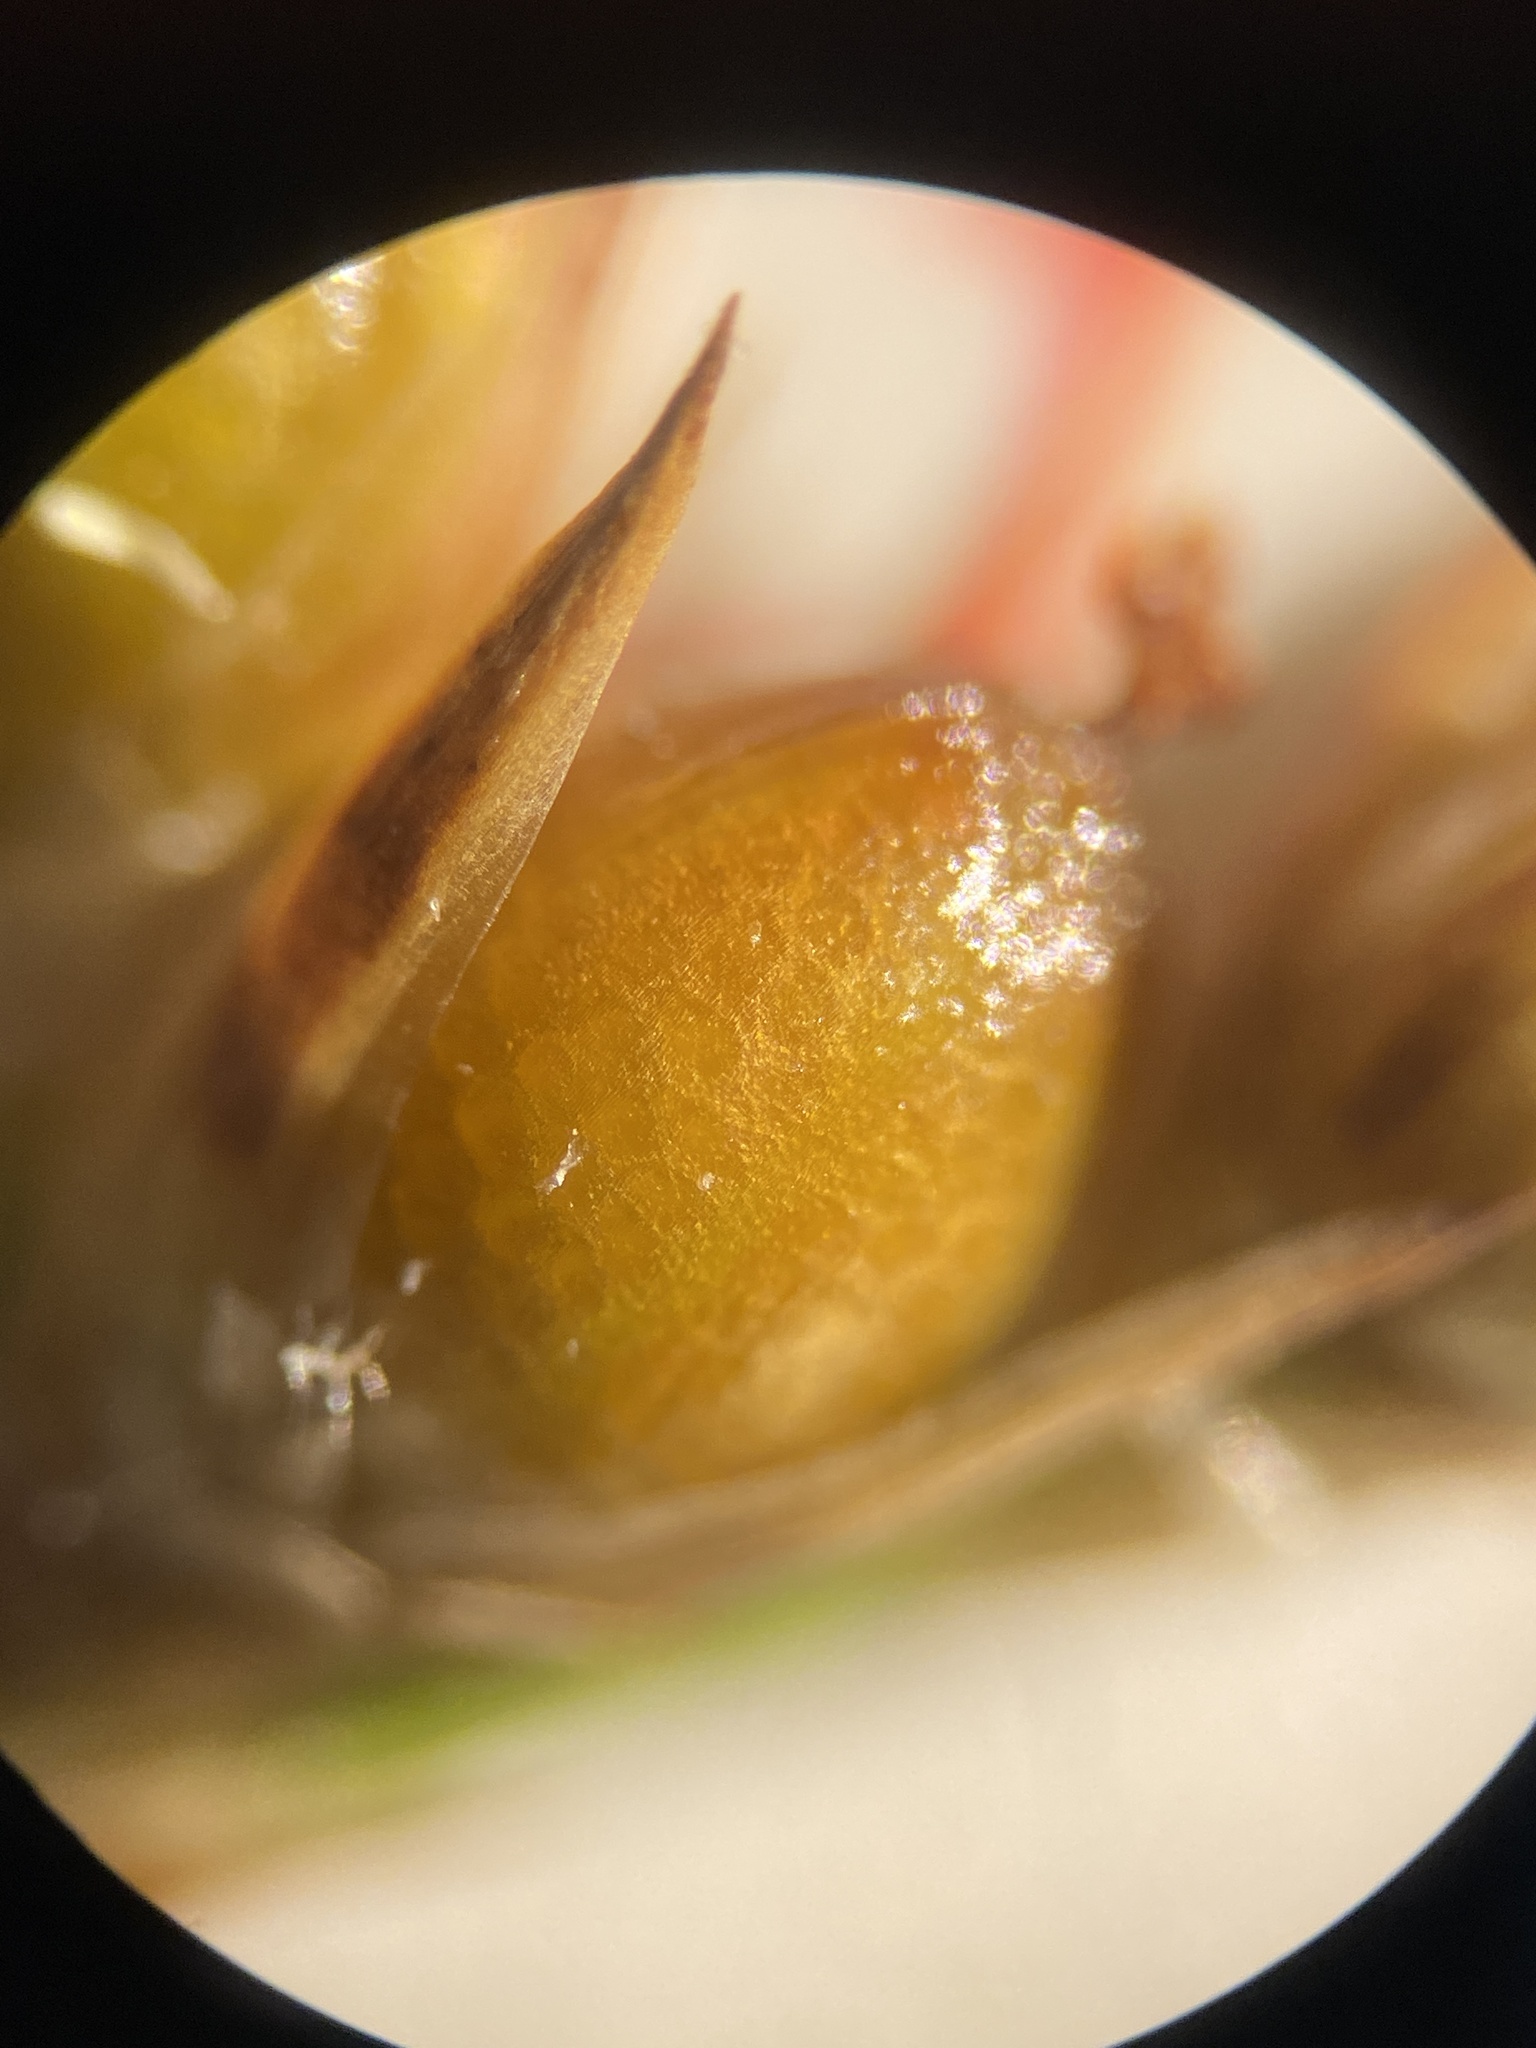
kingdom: Plantae
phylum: Tracheophyta
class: Liliopsida
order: Poales
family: Juncaceae
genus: Juncus
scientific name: Juncus dichotomus
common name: Forked rush
